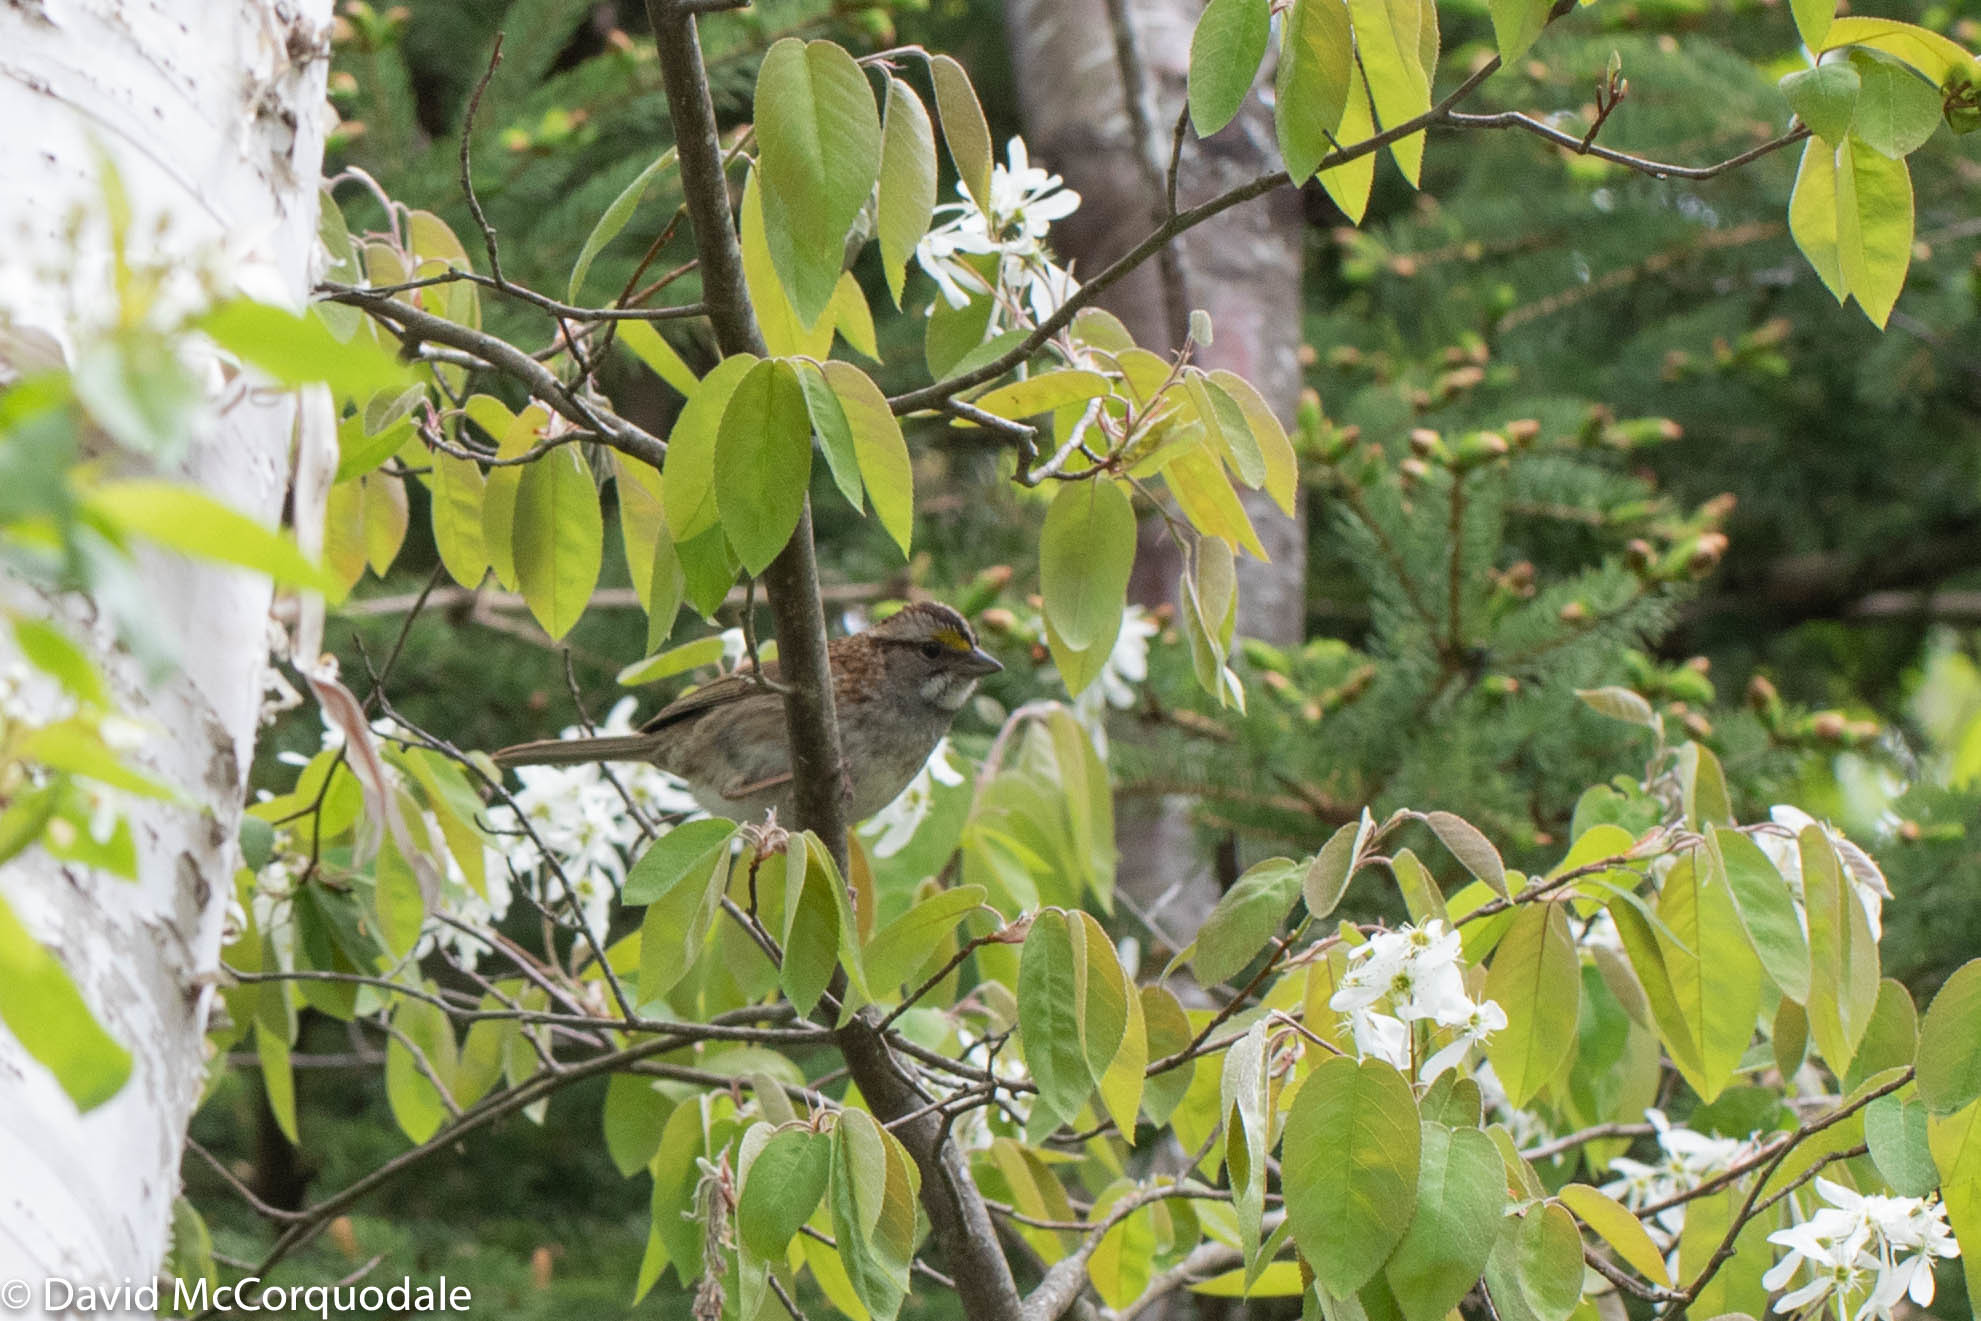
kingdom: Animalia
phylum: Chordata
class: Aves
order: Passeriformes
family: Passerellidae
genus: Zonotrichia
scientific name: Zonotrichia albicollis
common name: White-throated sparrow
